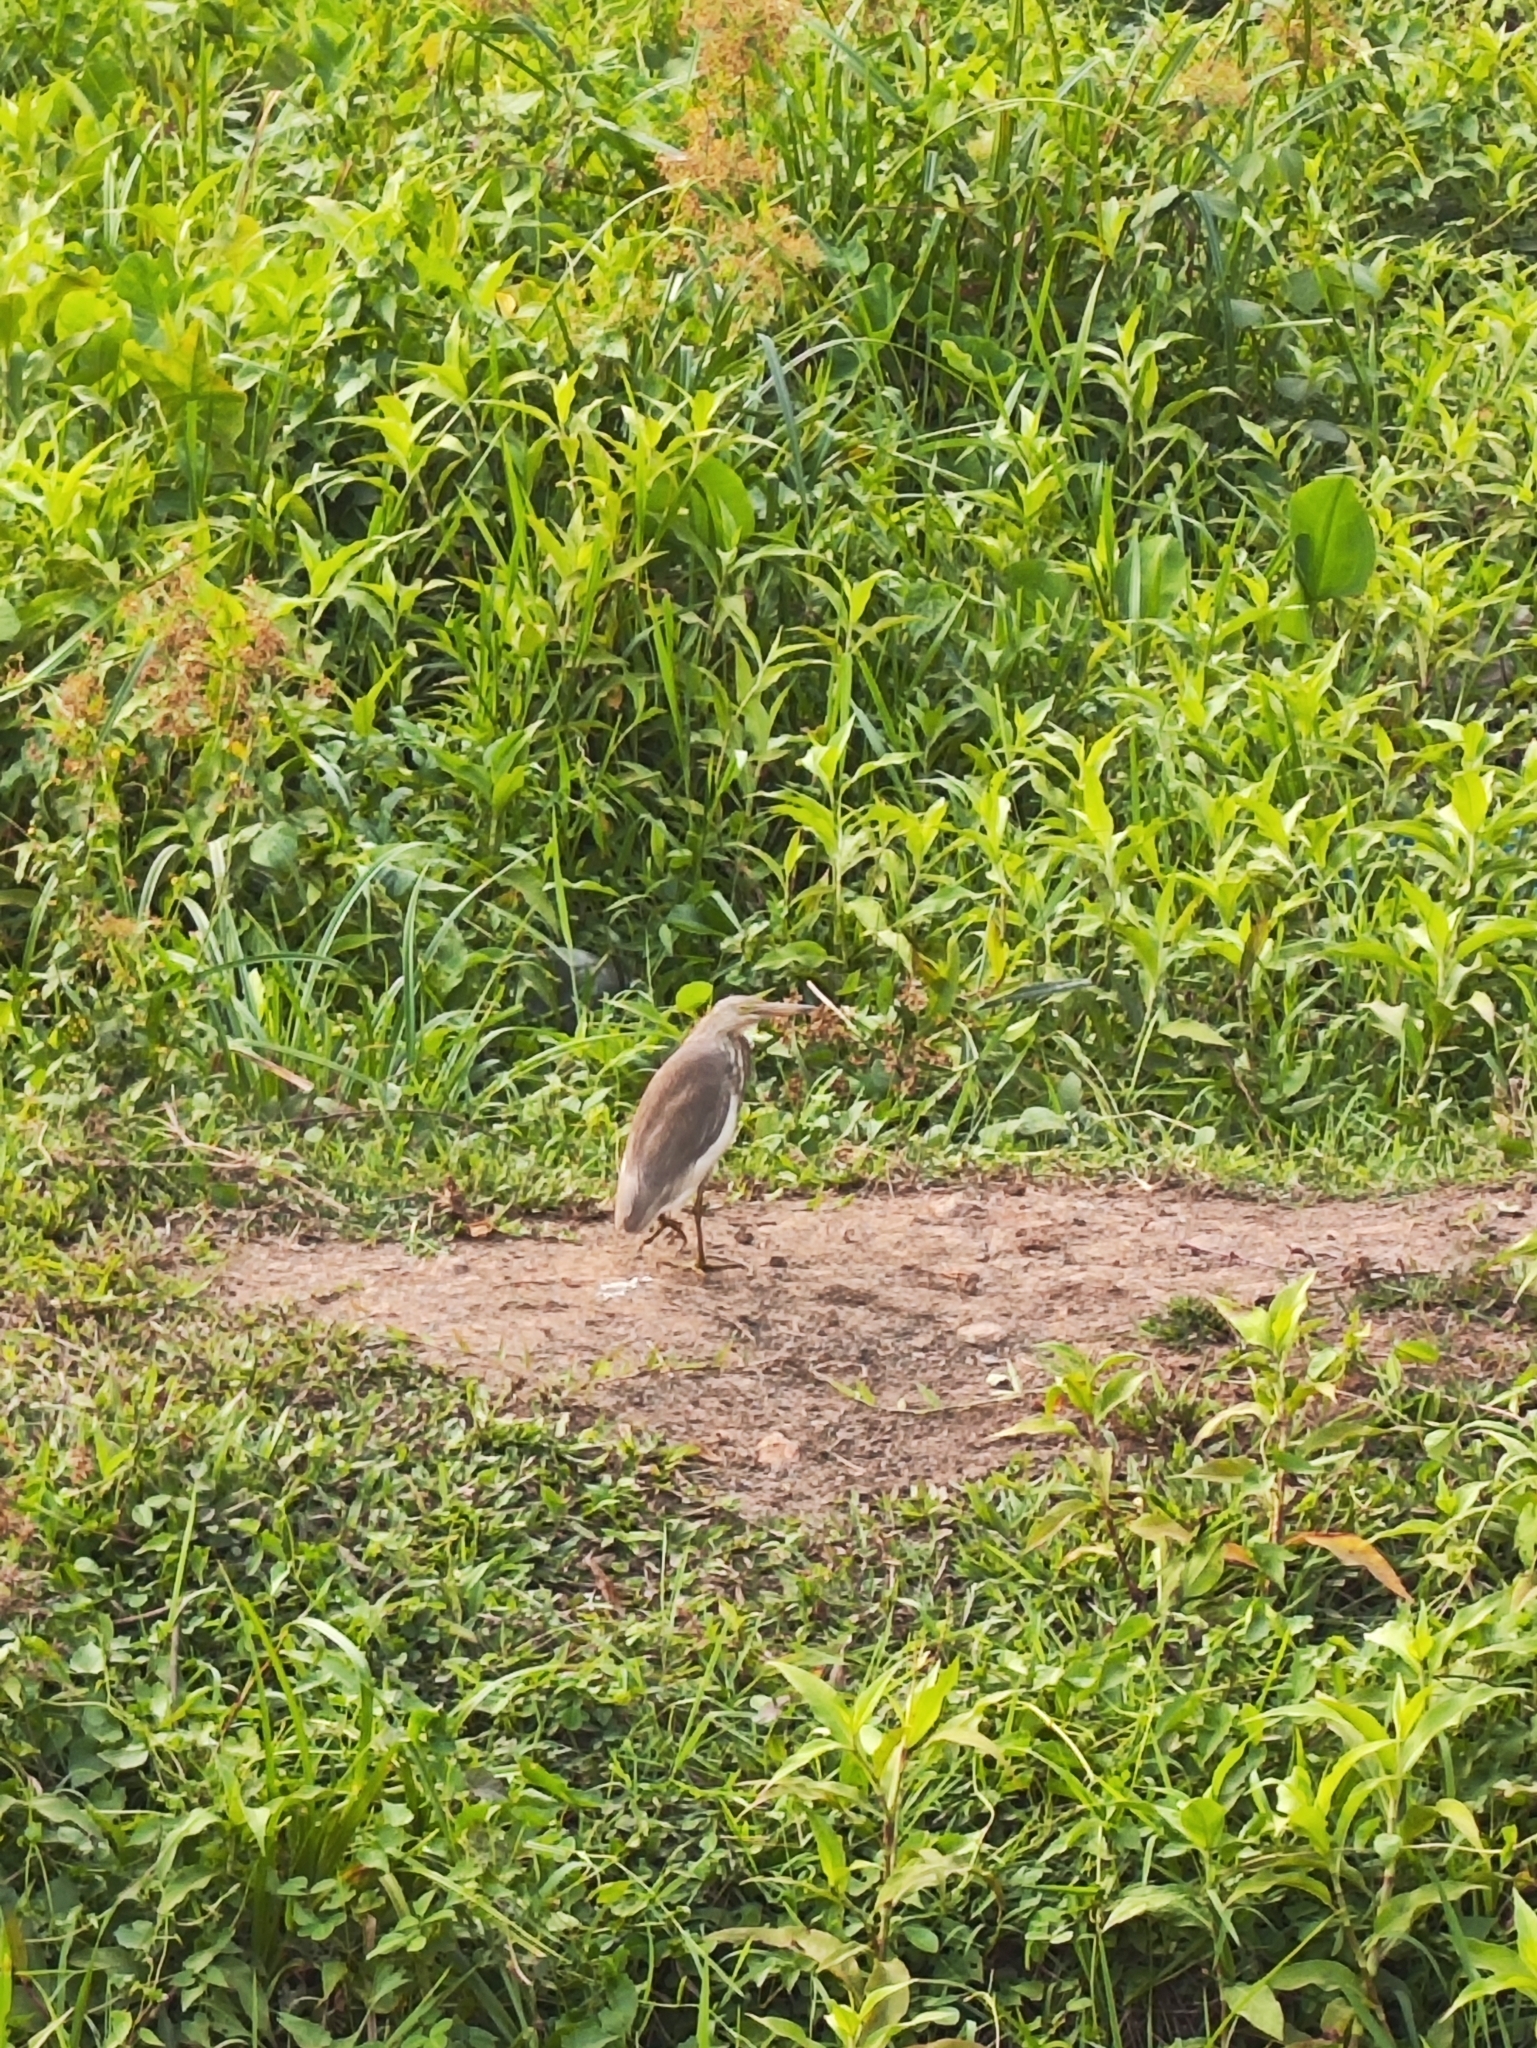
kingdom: Animalia
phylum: Chordata
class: Aves
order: Pelecaniformes
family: Ardeidae
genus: Ardeola
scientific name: Ardeola grayii
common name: Indian pond heron
